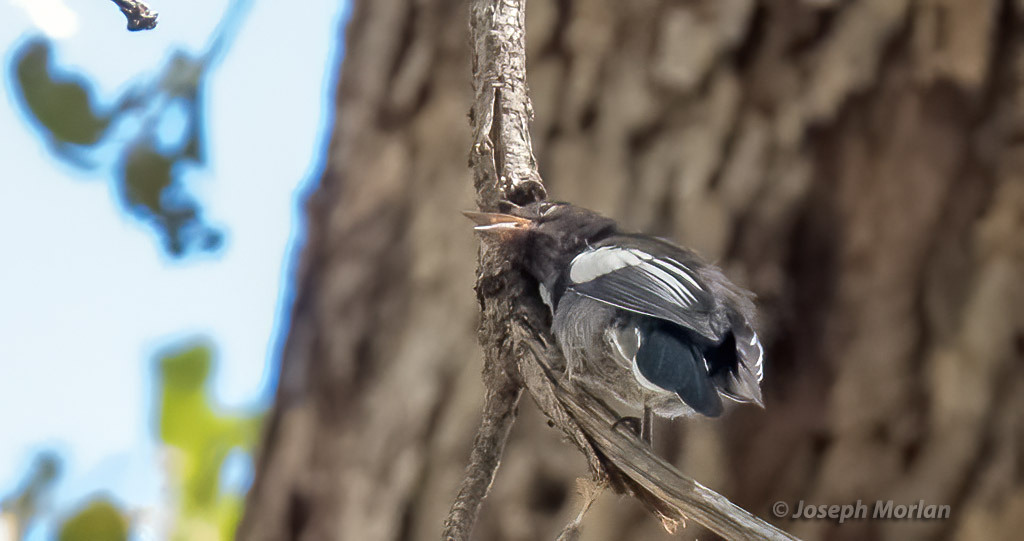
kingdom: Animalia
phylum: Chordata
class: Aves
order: Passeriformes
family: Parulidae
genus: Myioborus
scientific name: Myioborus pictus
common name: Painted whitestart
